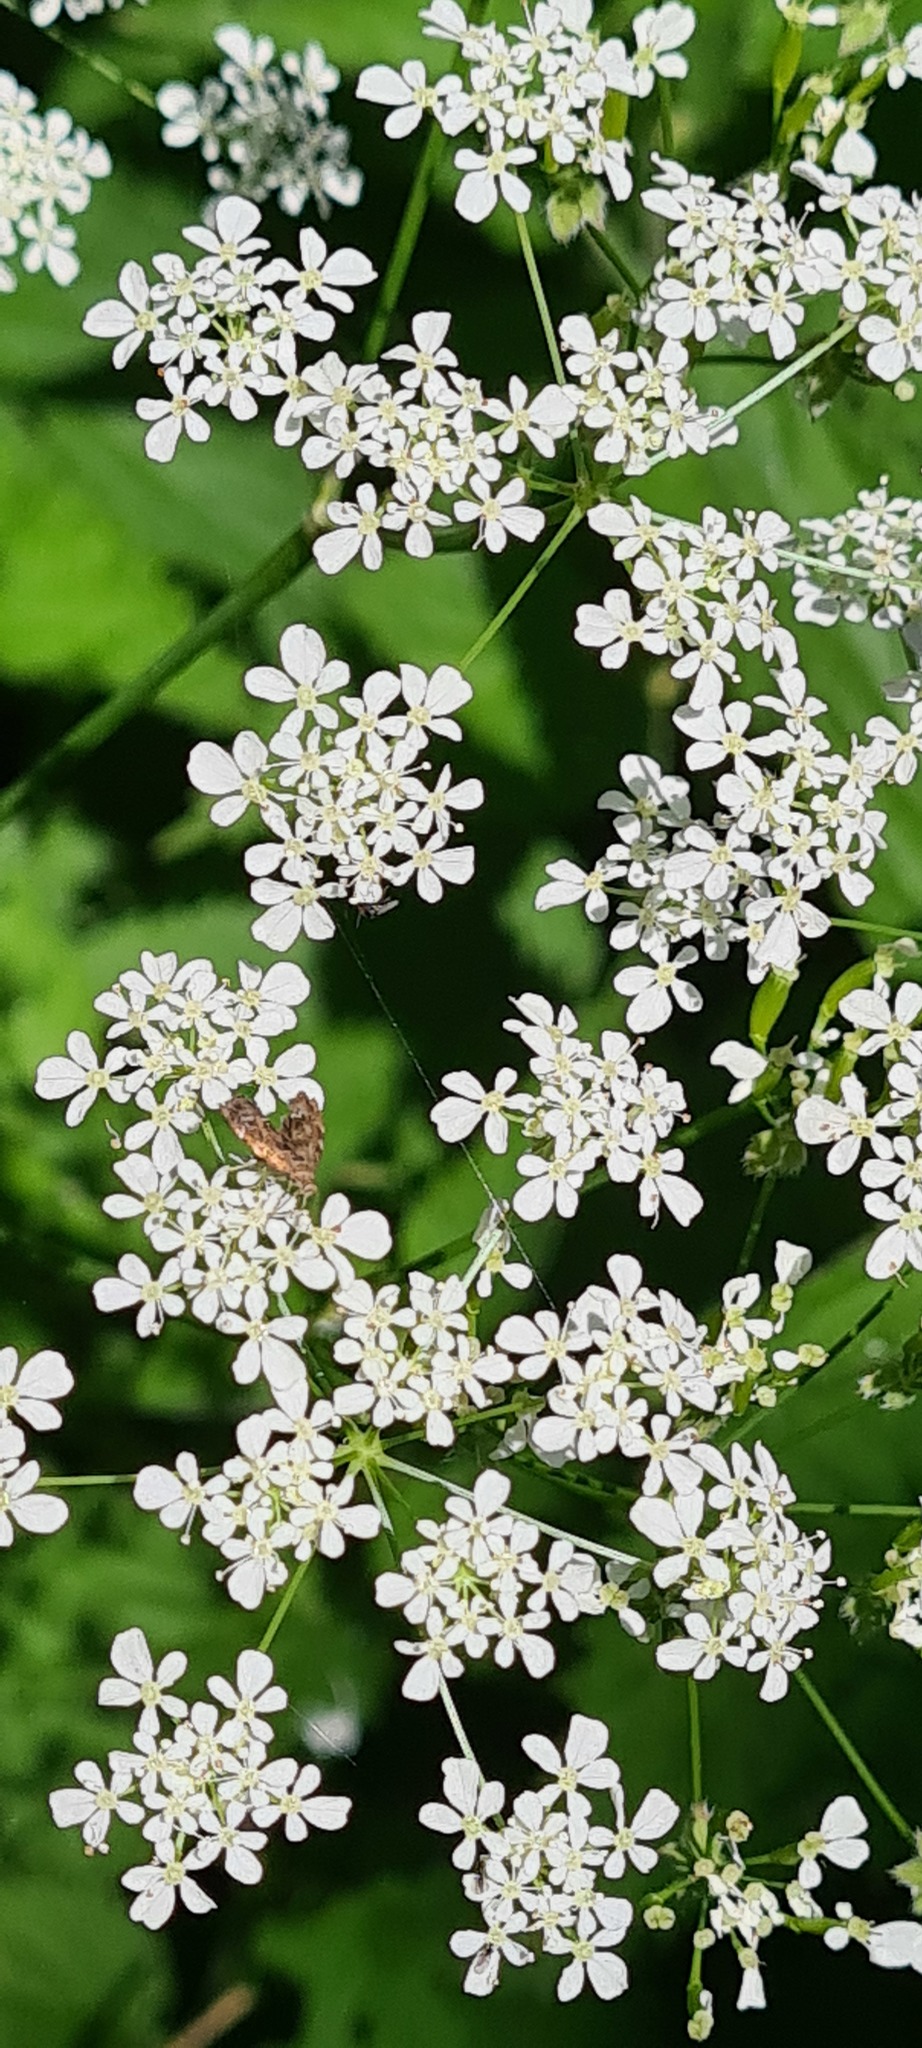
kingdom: Animalia
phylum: Arthropoda
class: Insecta
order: Lepidoptera
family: Choreutidae
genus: Anthophila
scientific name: Anthophila fabriciana
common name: Nettle-tap
